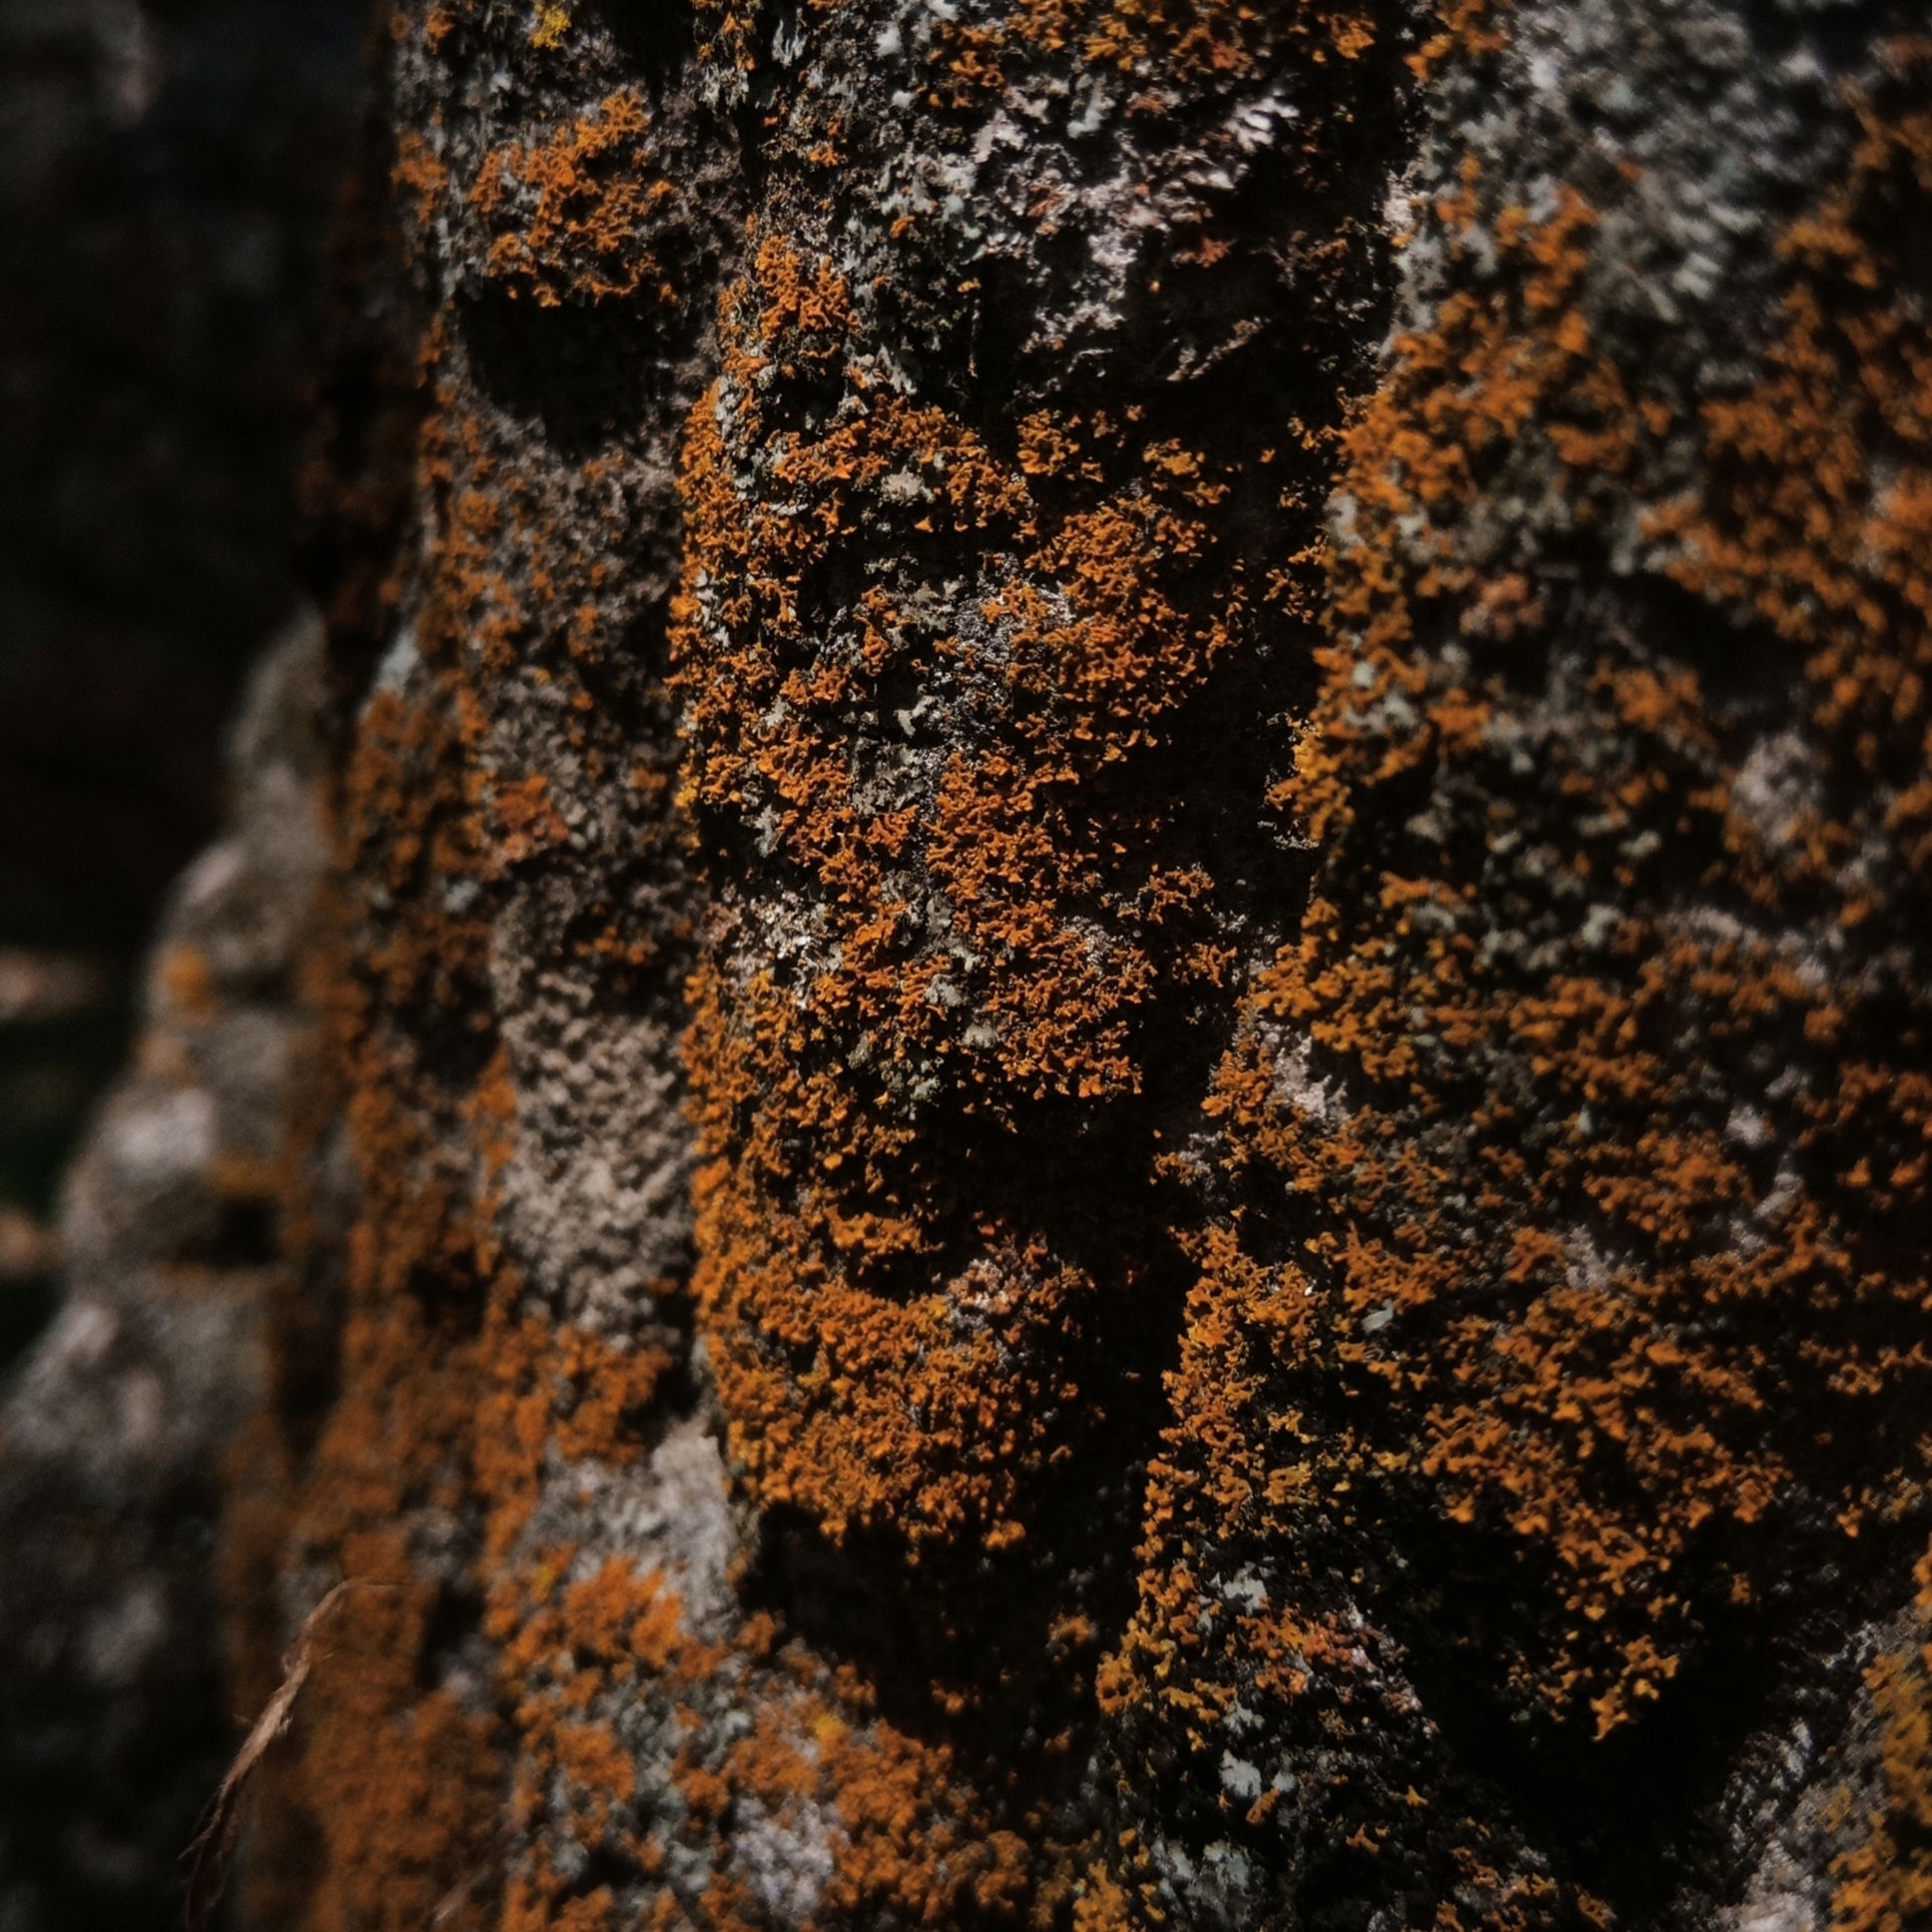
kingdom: Fungi
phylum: Ascomycota
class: Lecanoromycetes
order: Teloschistales
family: Teloschistaceae
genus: Gallowayella
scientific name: Gallowayella weberi
